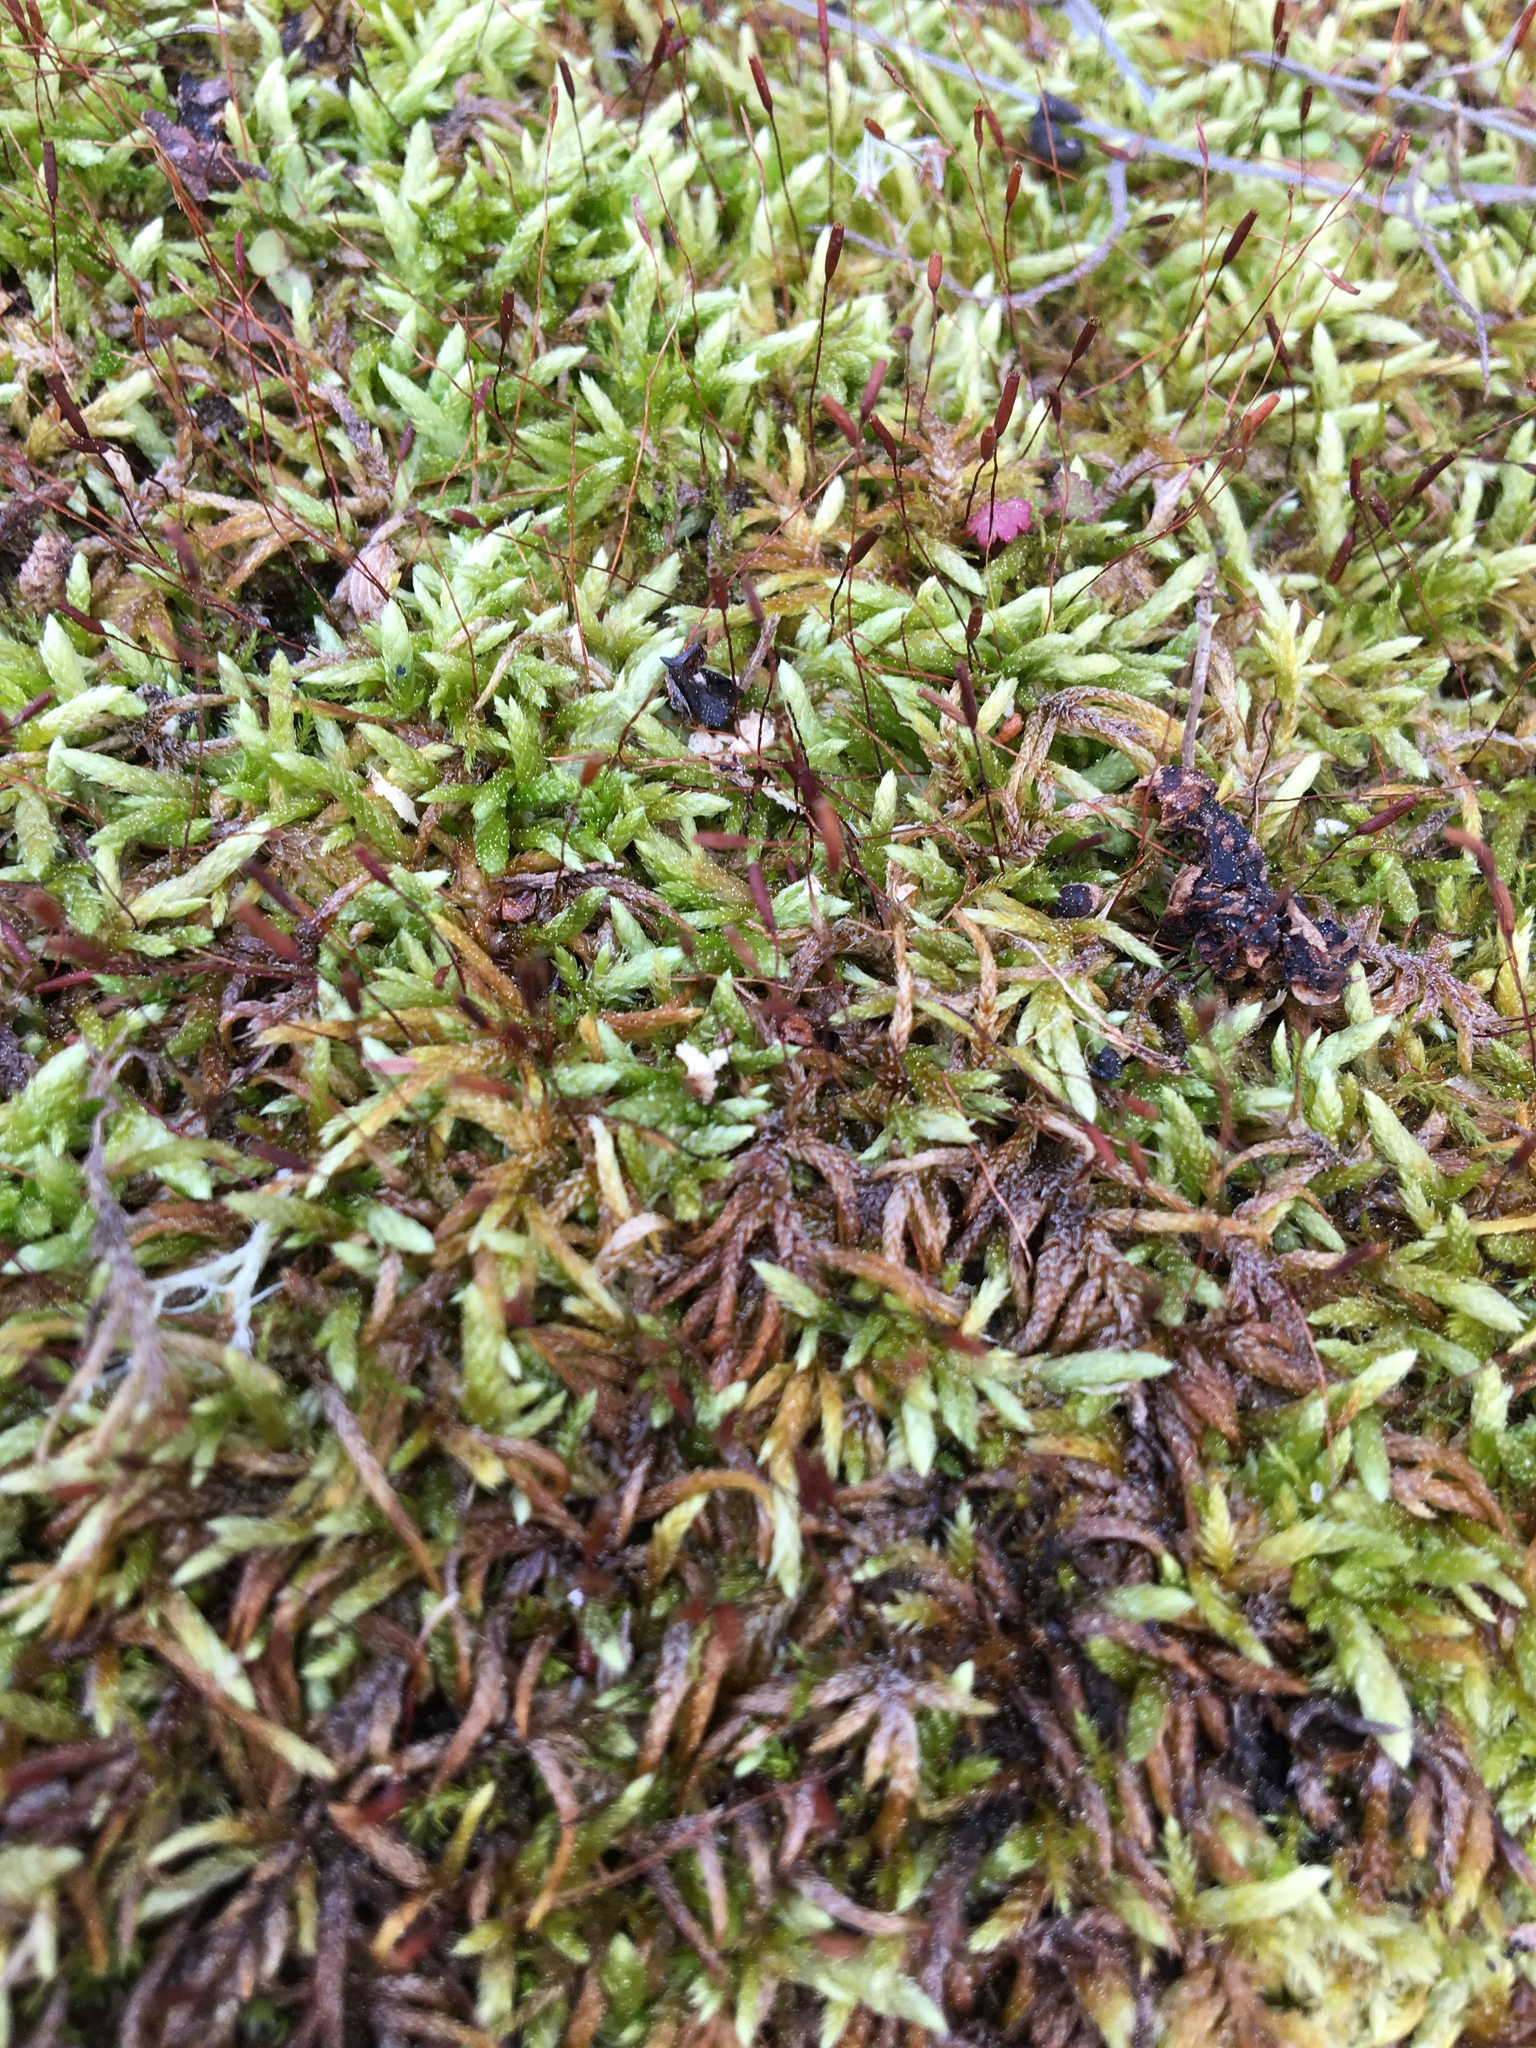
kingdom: Plantae
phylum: Bryophyta
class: Bryopsida
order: Hypnales
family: Entodontaceae
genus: Entodon
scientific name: Entodon seductrix
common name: Round-stemmed entodon moss
